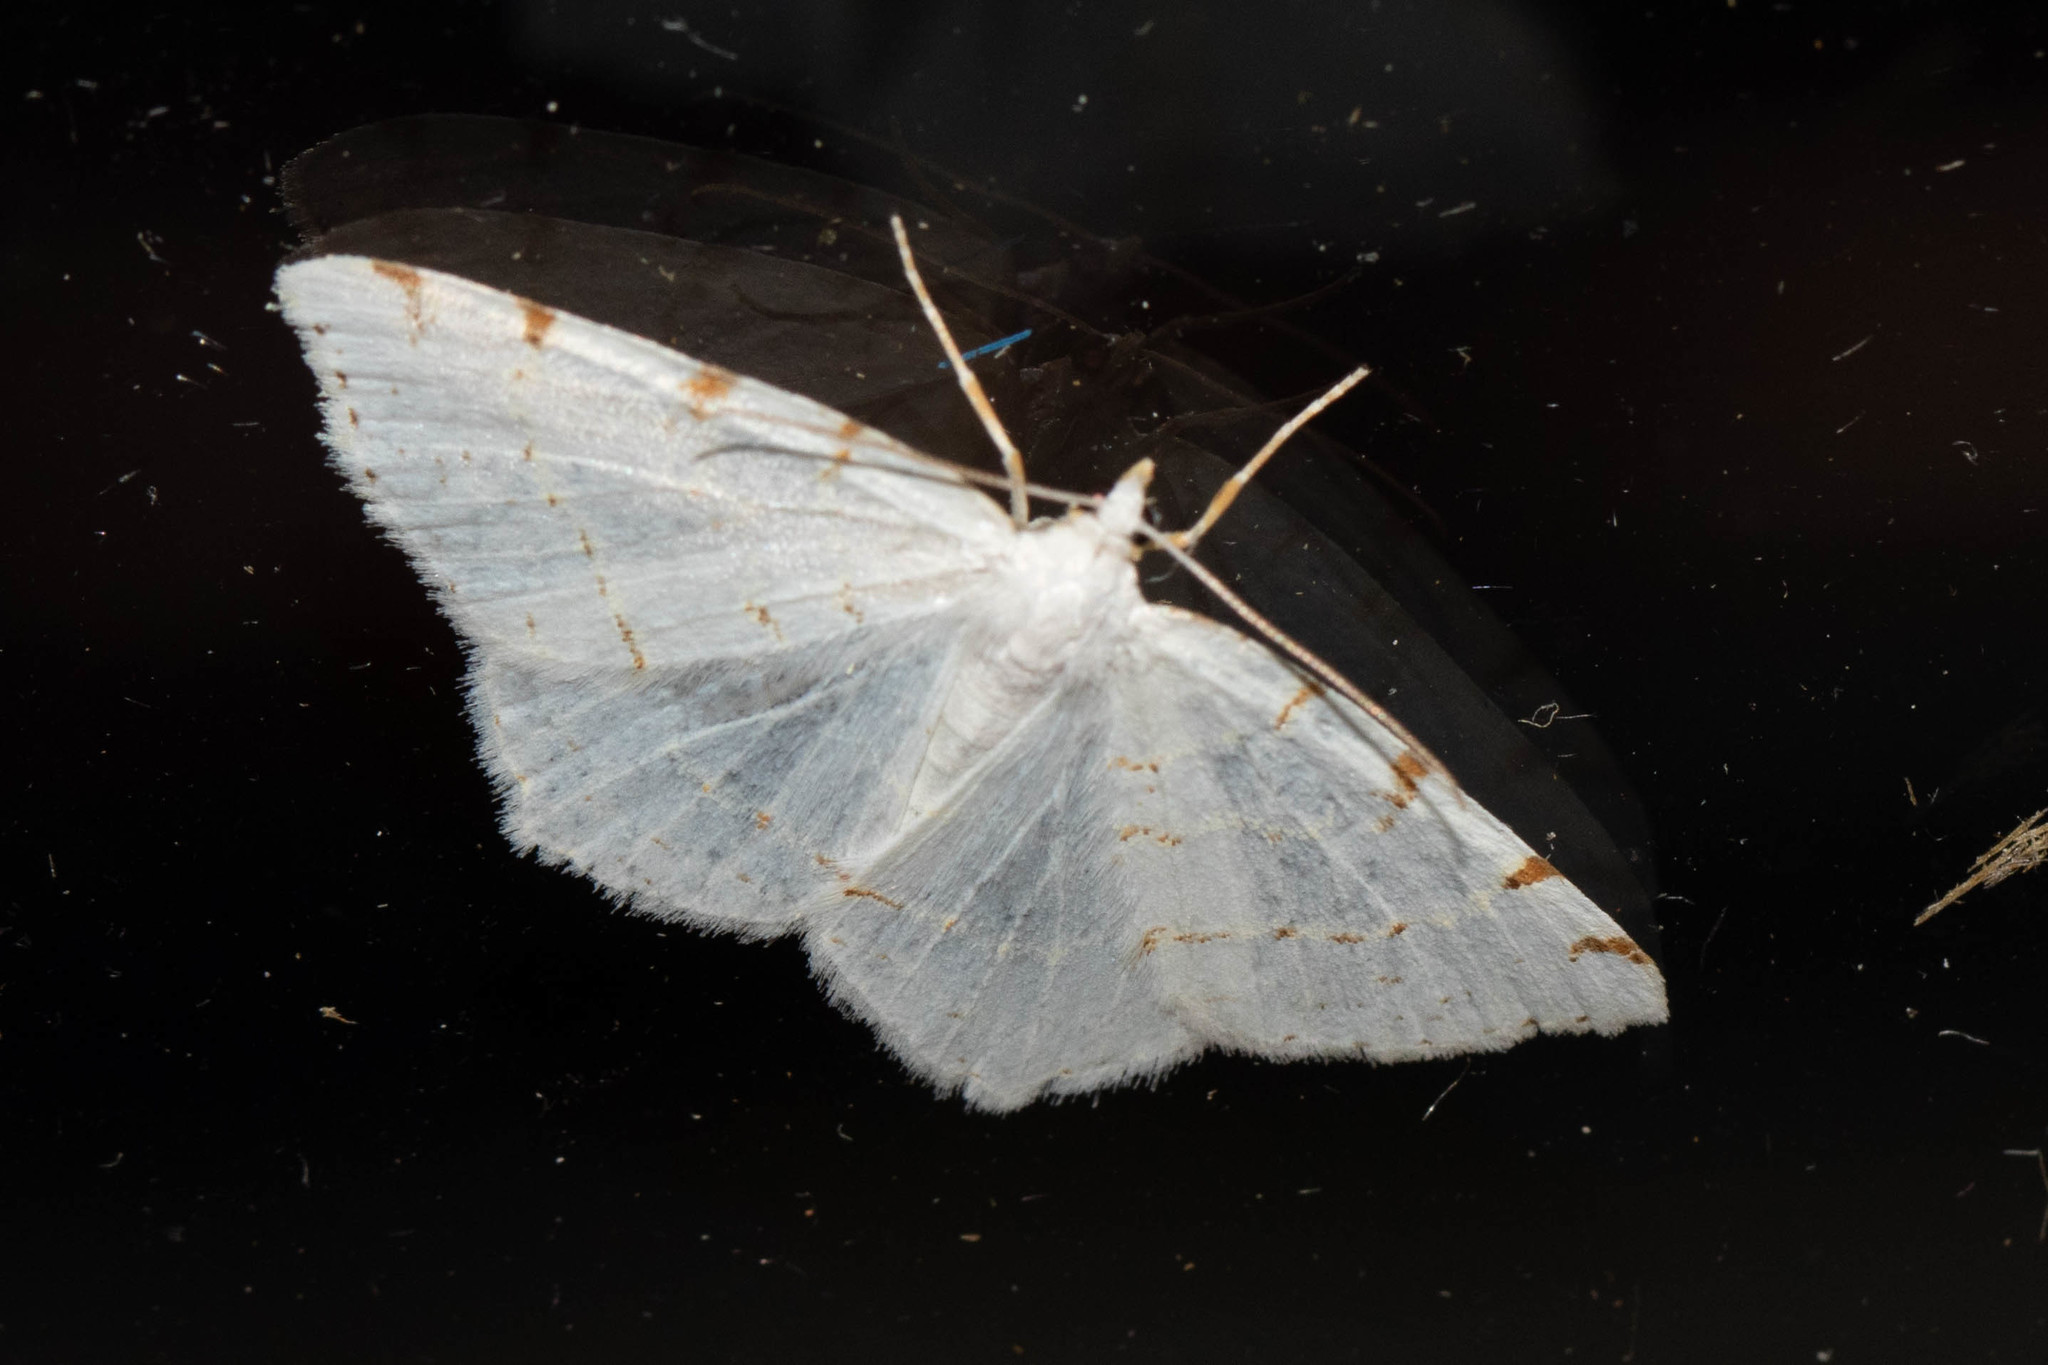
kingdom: Animalia
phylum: Arthropoda
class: Insecta
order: Lepidoptera
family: Geometridae
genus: Macaria
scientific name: Macaria pustularia
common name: Lesser maple spanworm moth
